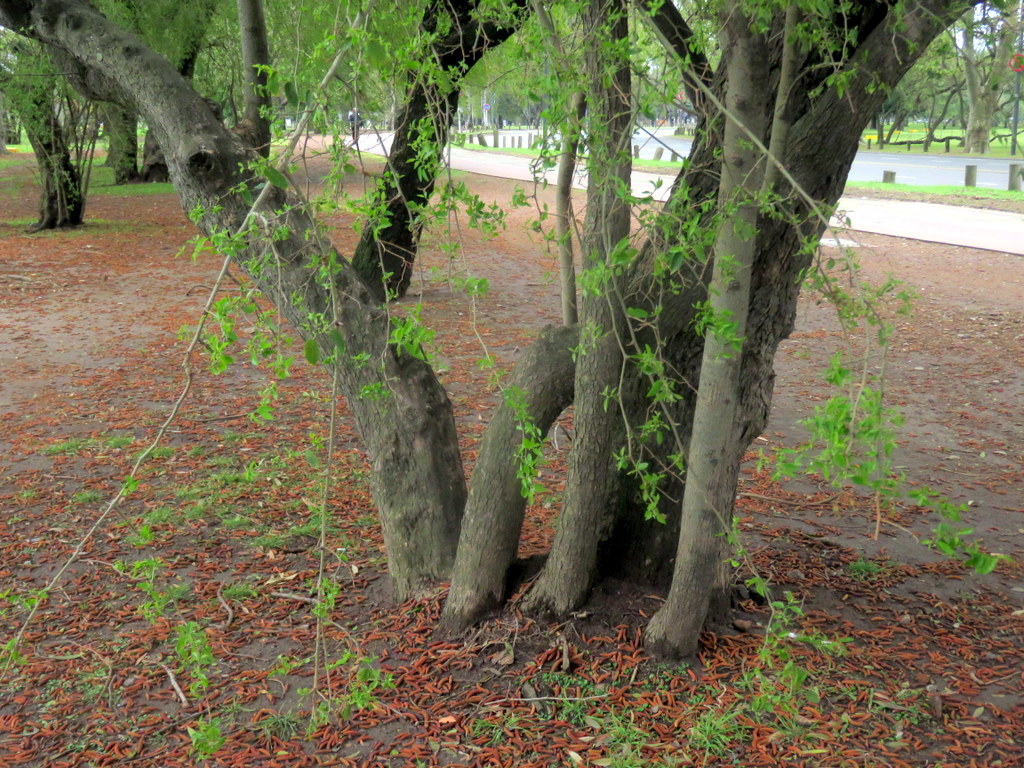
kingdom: Plantae
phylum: Tracheophyta
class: Magnoliopsida
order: Rosales
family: Cannabaceae
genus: Celtis
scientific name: Celtis tala
